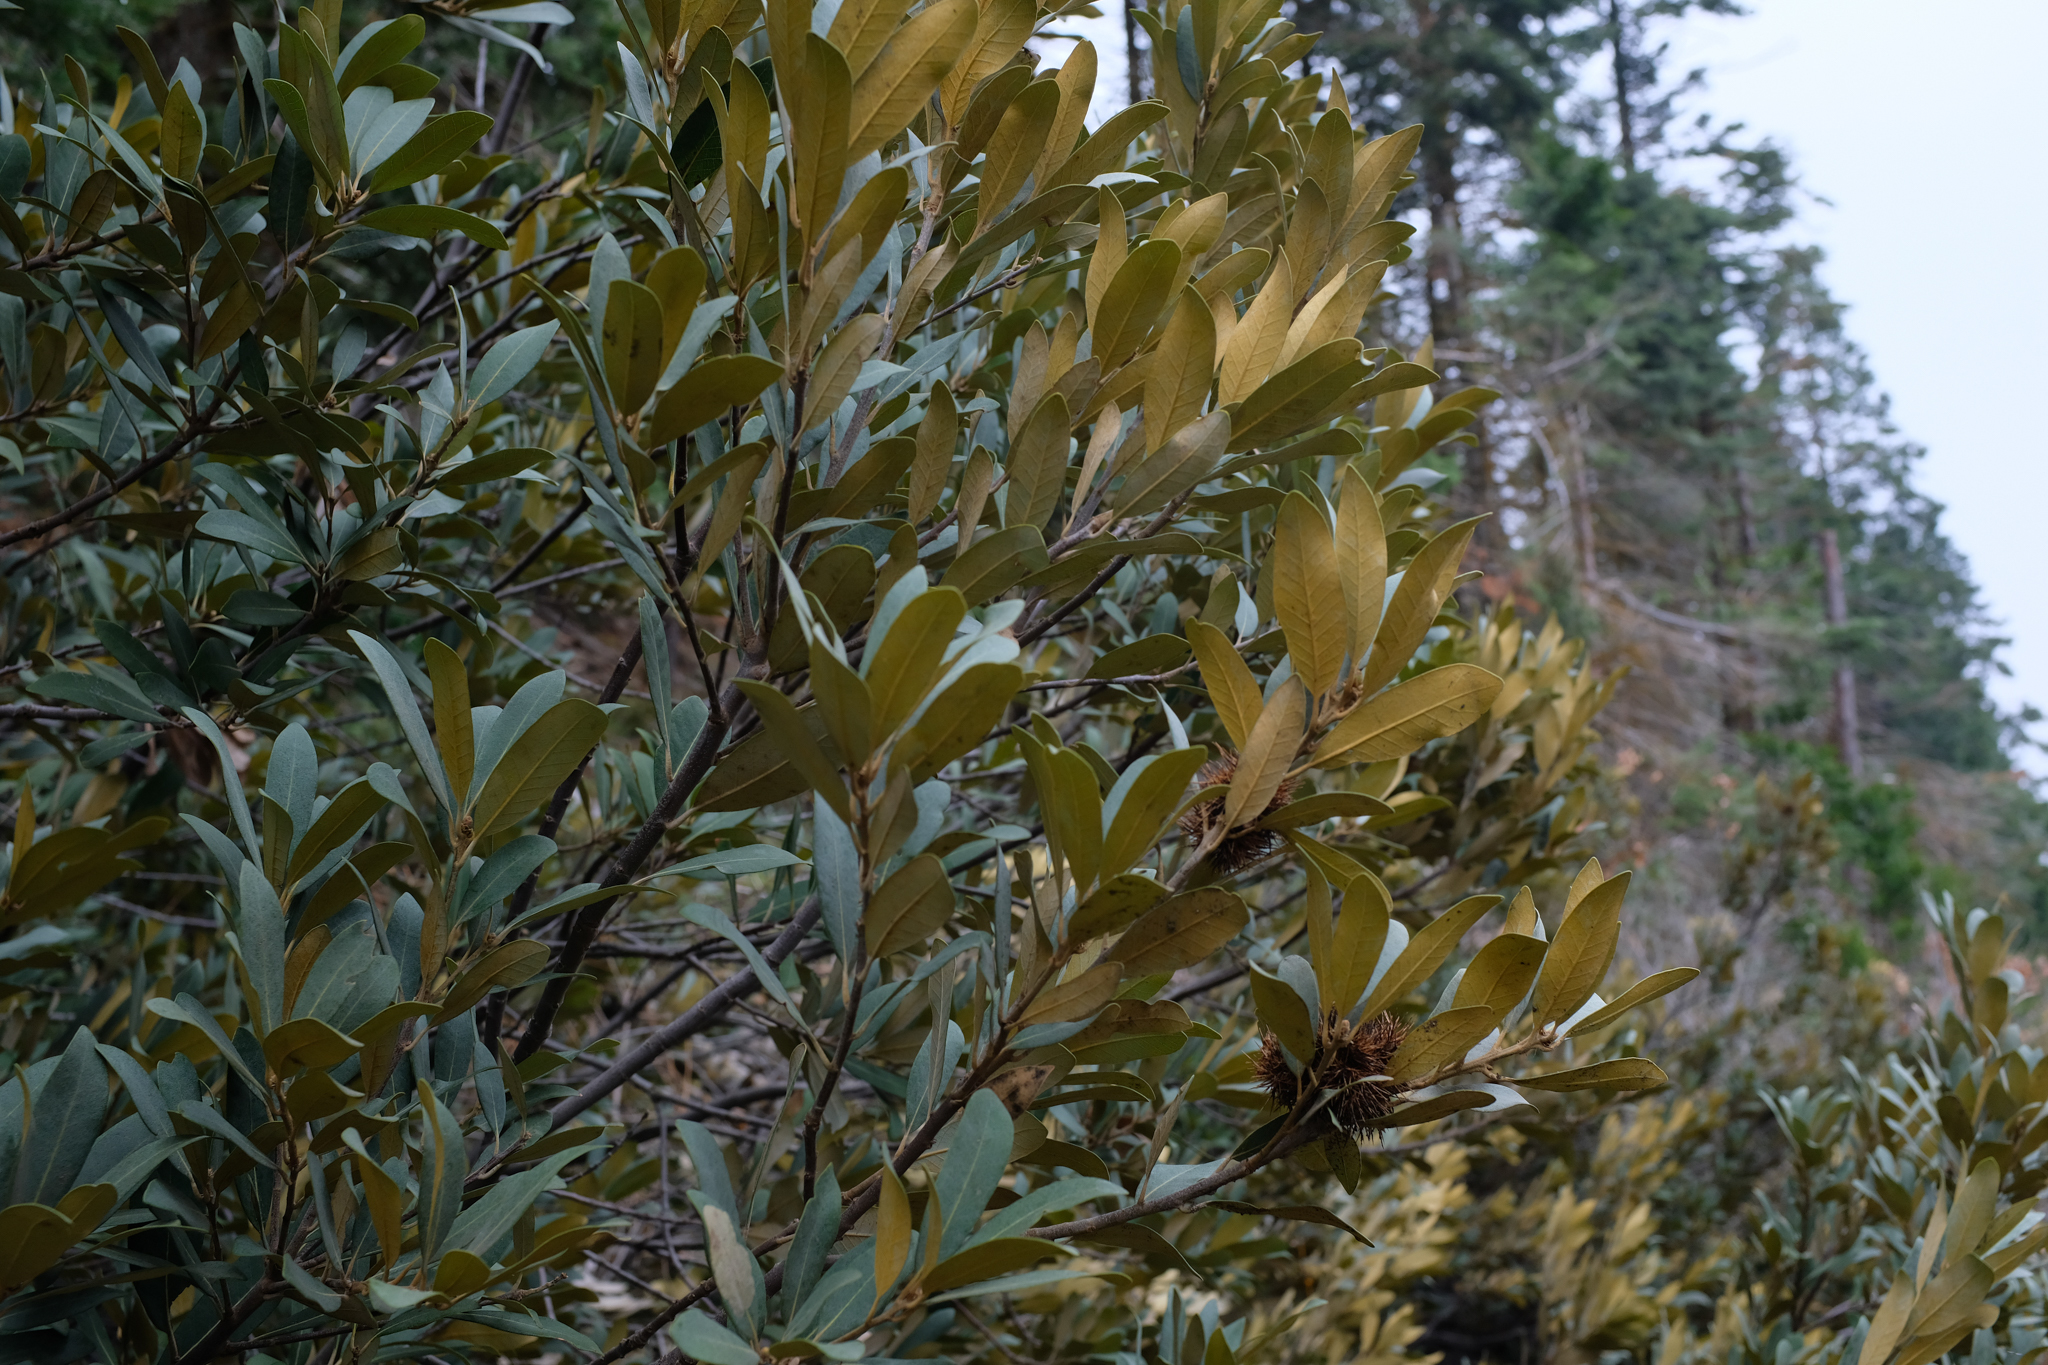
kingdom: Plantae
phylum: Tracheophyta
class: Magnoliopsida
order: Fagales
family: Fagaceae
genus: Chrysolepis
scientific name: Chrysolepis sempervirens
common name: Bush chinquapin
